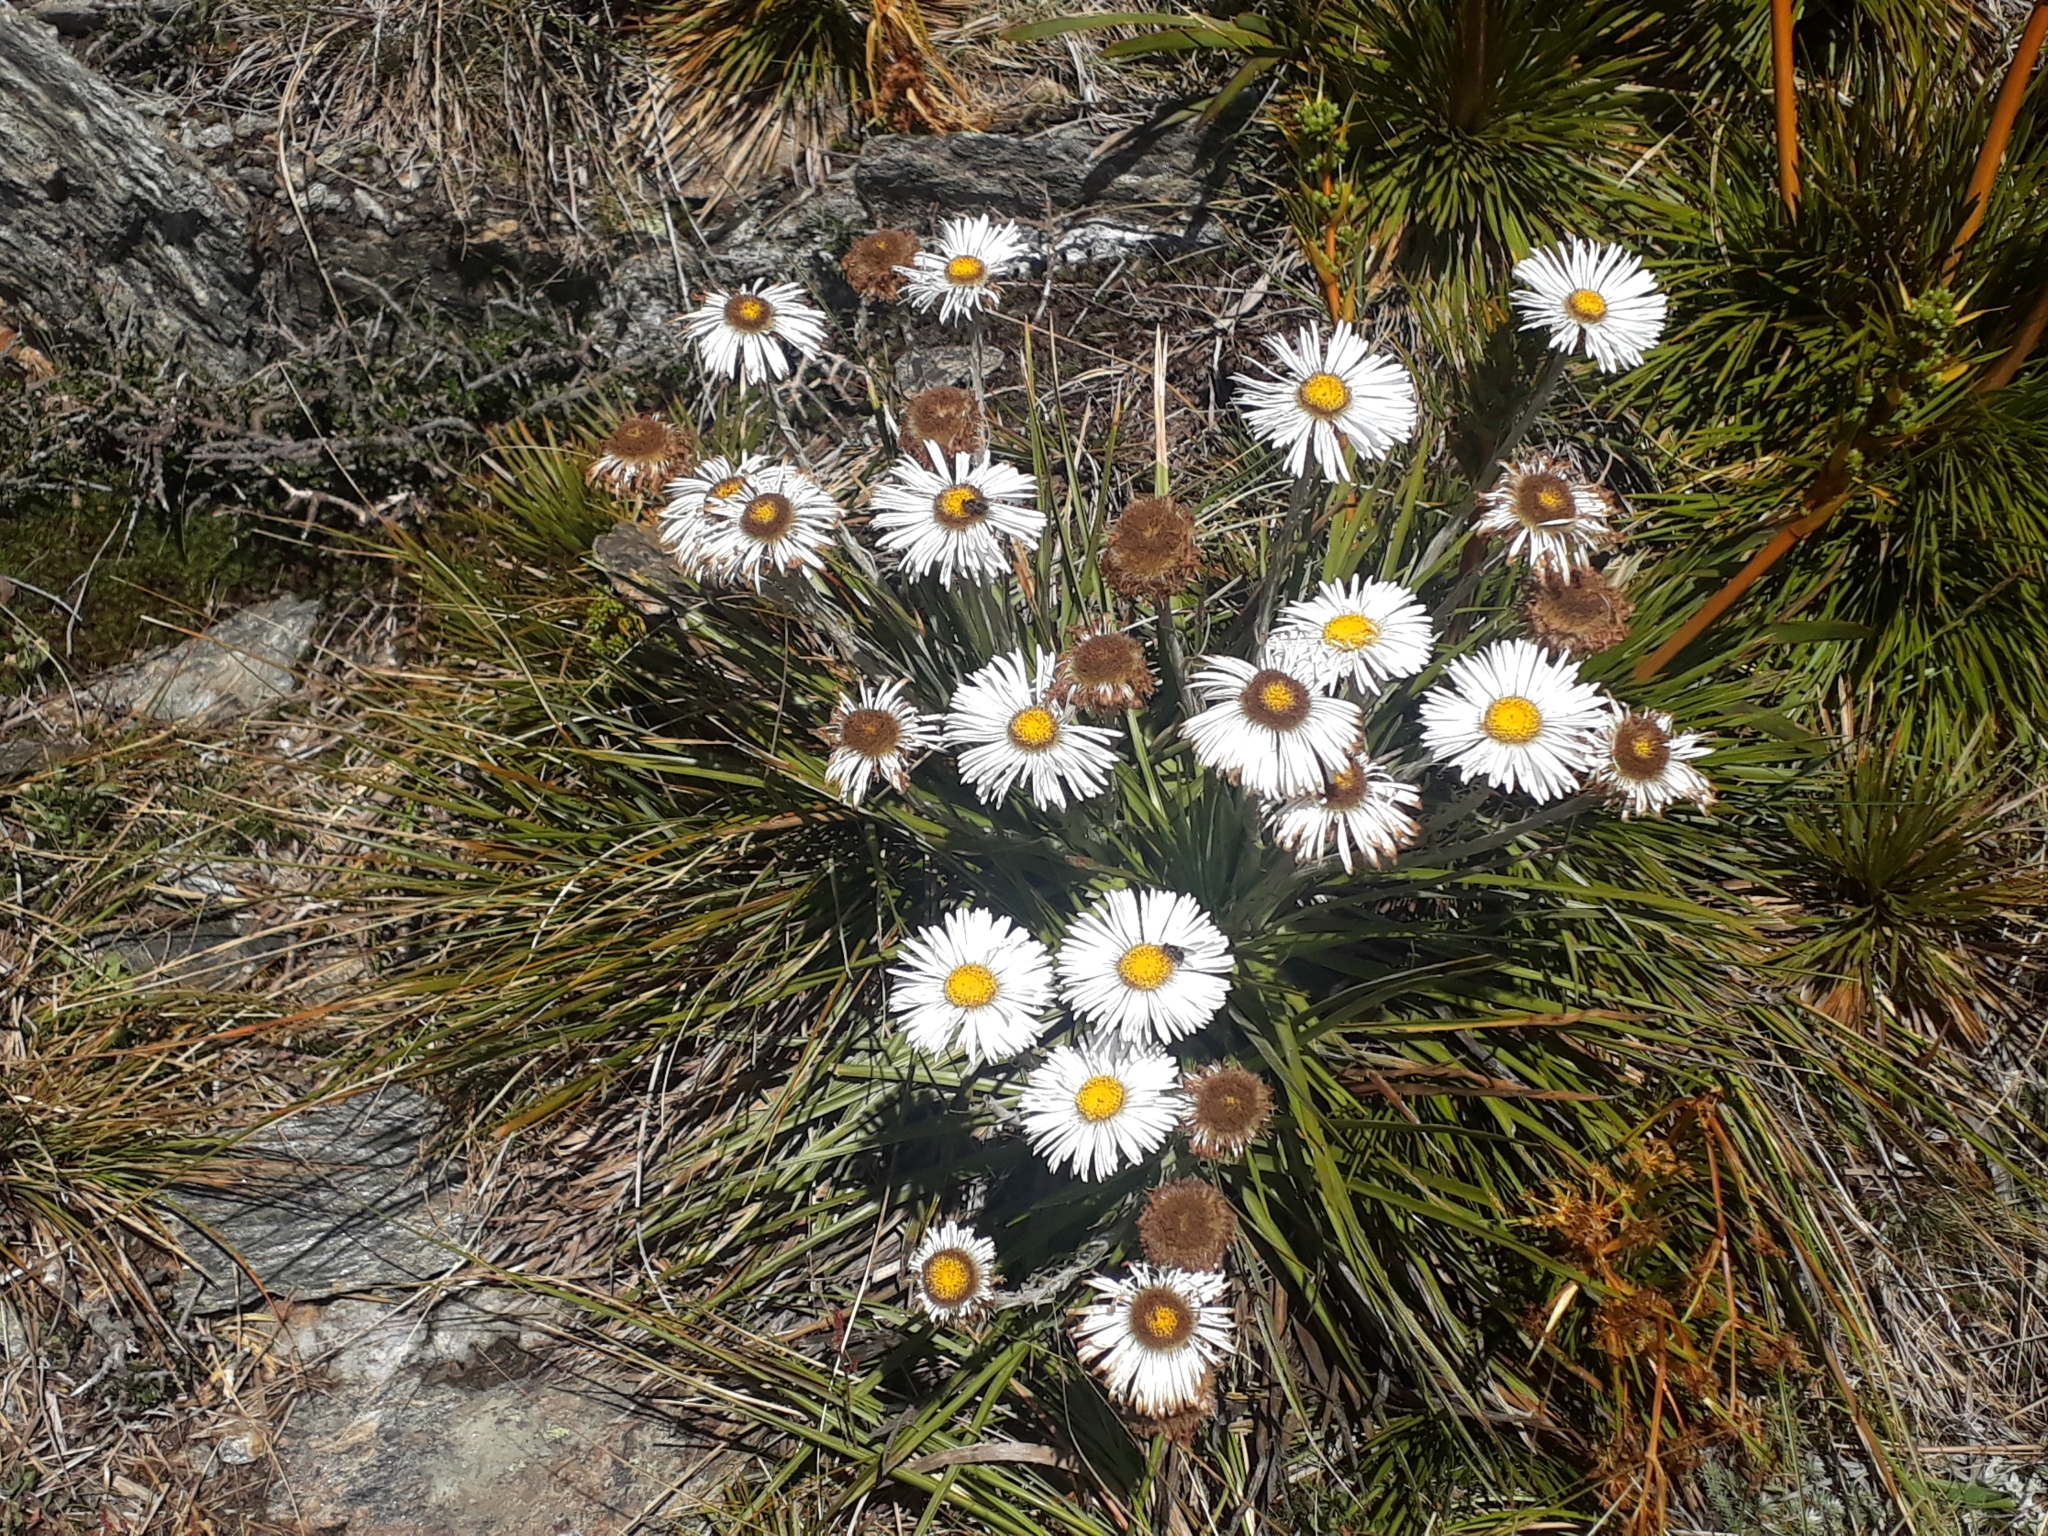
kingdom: Plantae
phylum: Tracheophyta
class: Magnoliopsida
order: Asterales
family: Asteraceae
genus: Celmisia
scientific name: Celmisia lyallii
